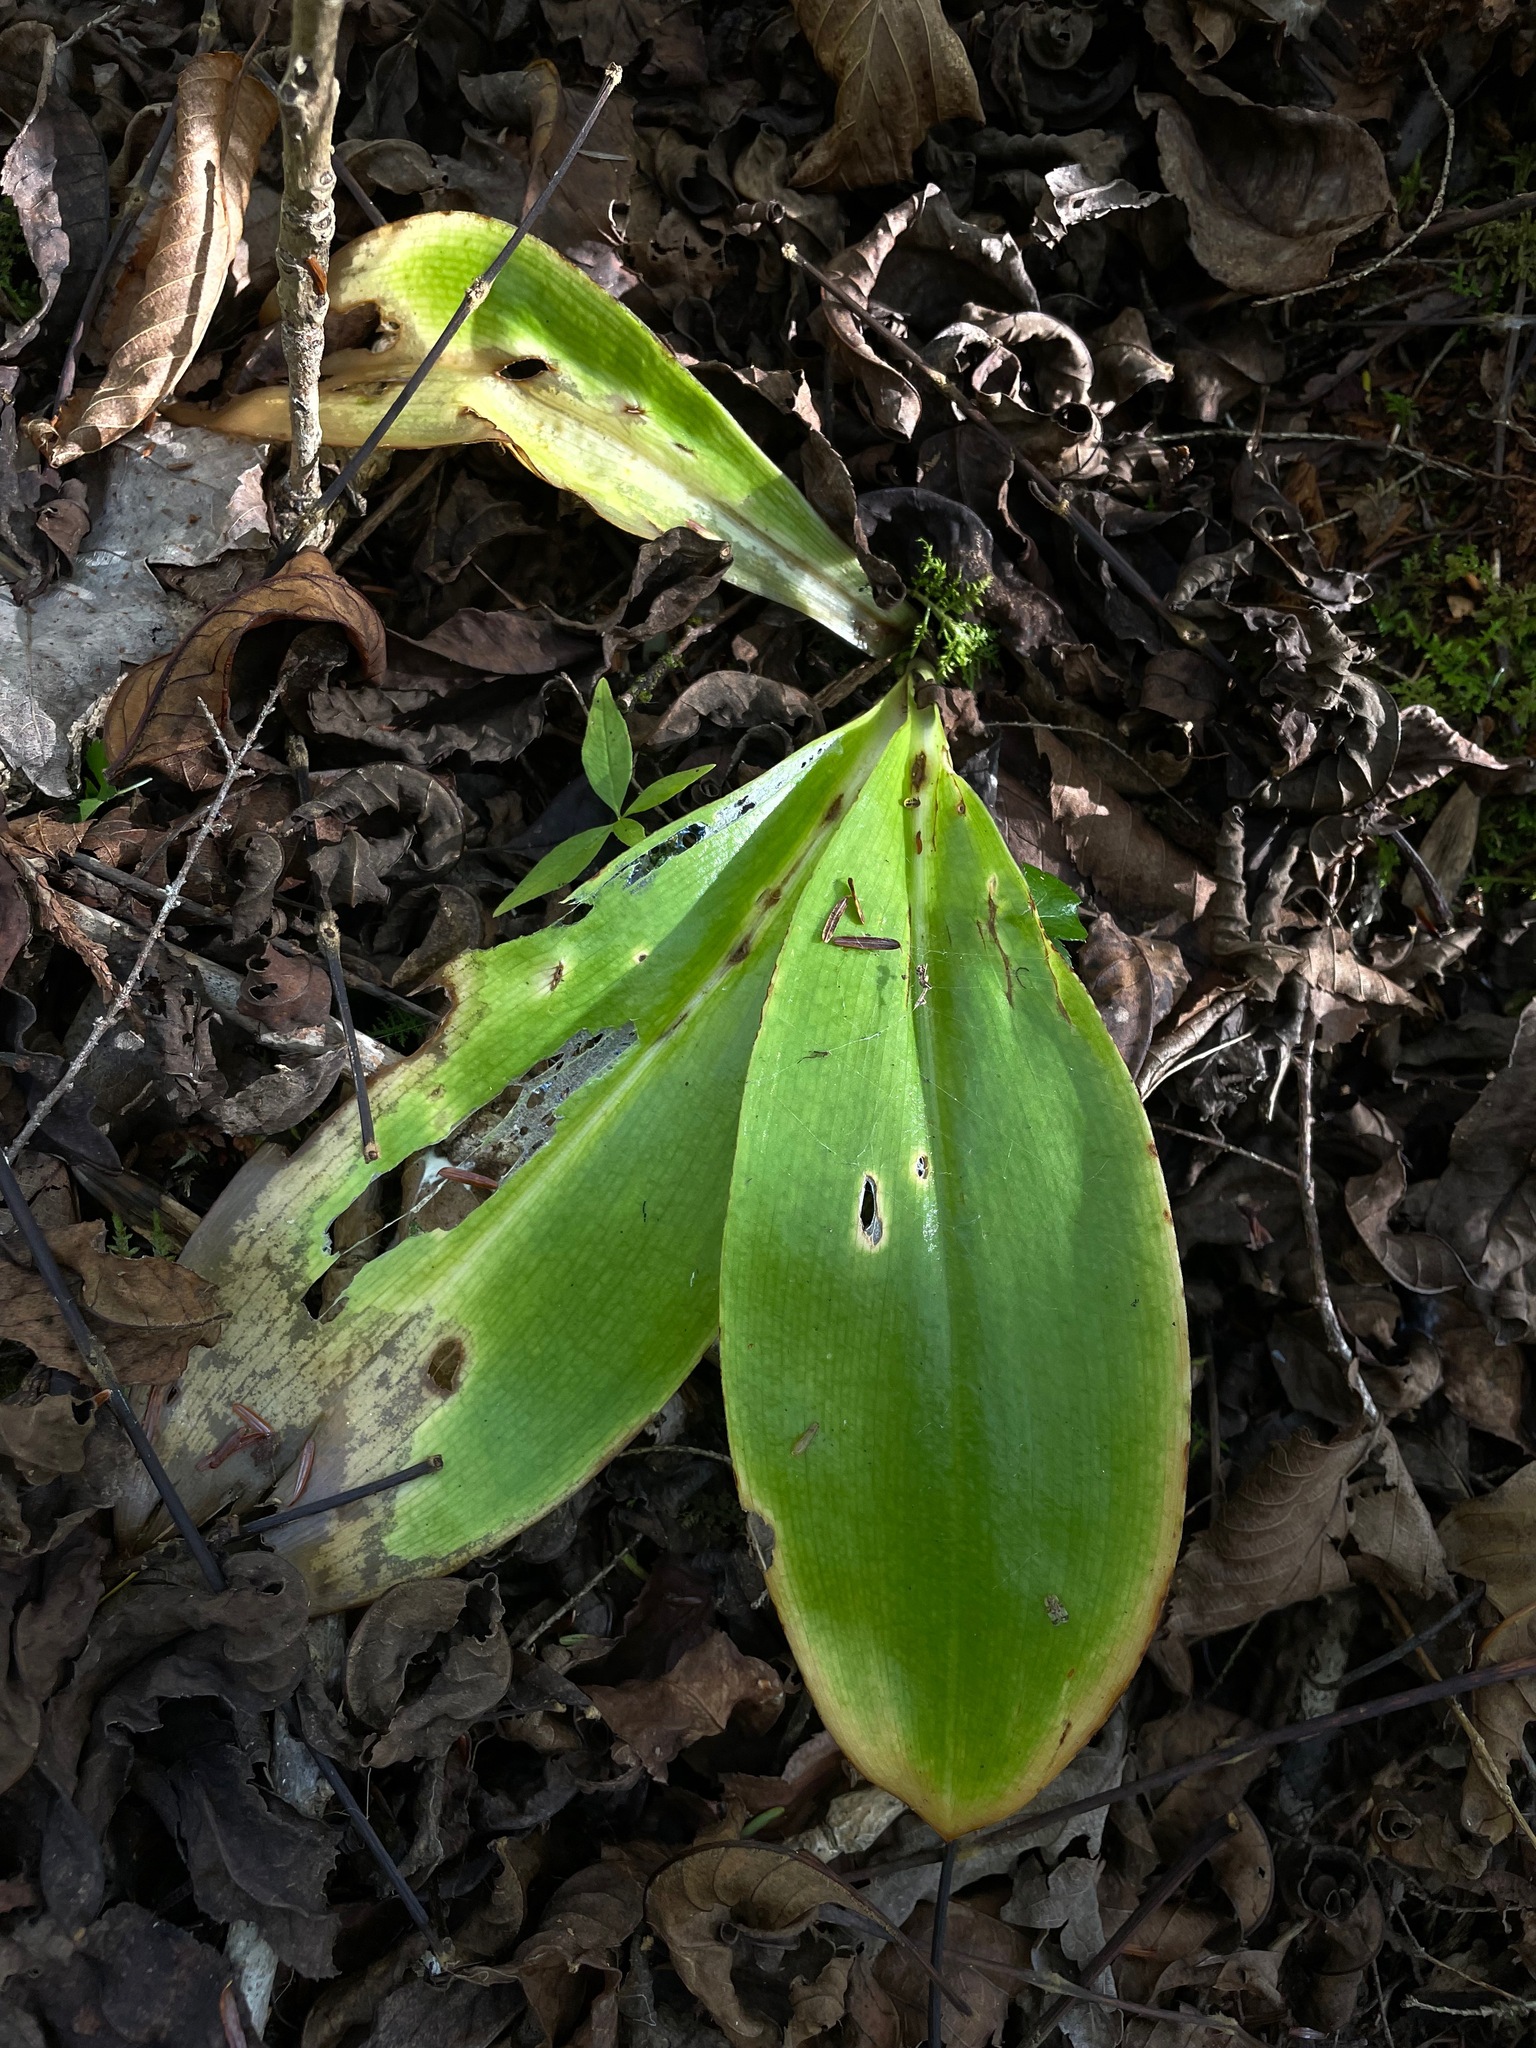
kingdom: Plantae
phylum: Tracheophyta
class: Liliopsida
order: Liliales
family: Liliaceae
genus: Clintonia
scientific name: Clintonia borealis
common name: Yellow clintonia
